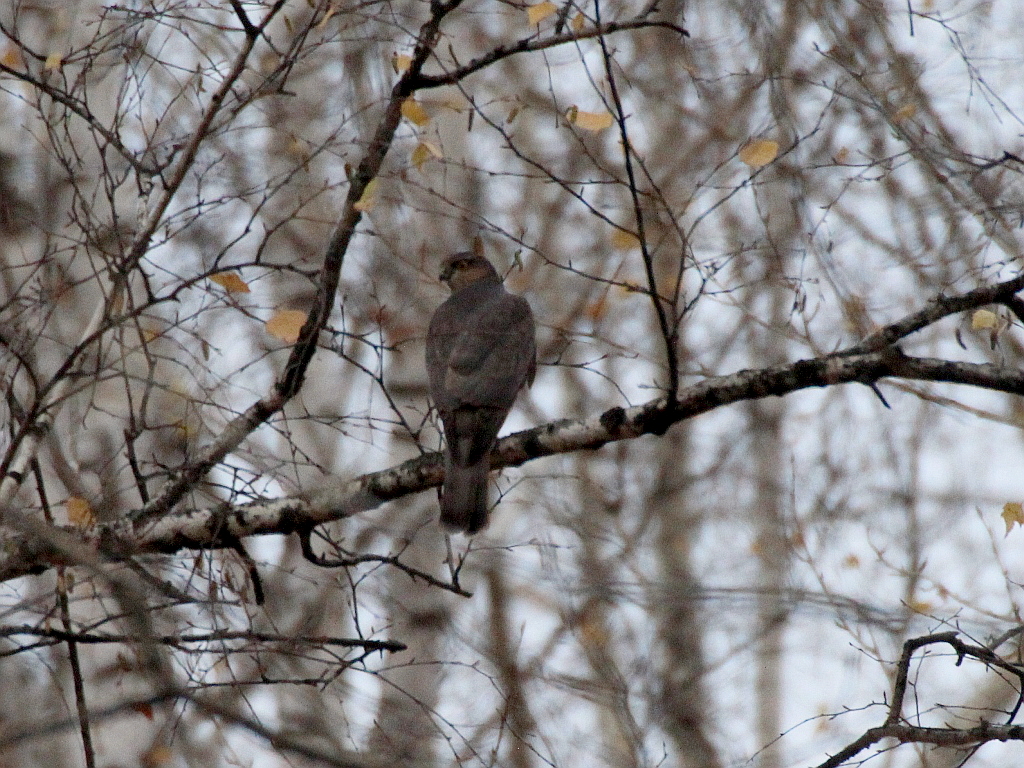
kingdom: Animalia
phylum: Chordata
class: Aves
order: Accipitriformes
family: Accipitridae
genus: Accipiter
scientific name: Accipiter nisus
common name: Eurasian sparrowhawk
